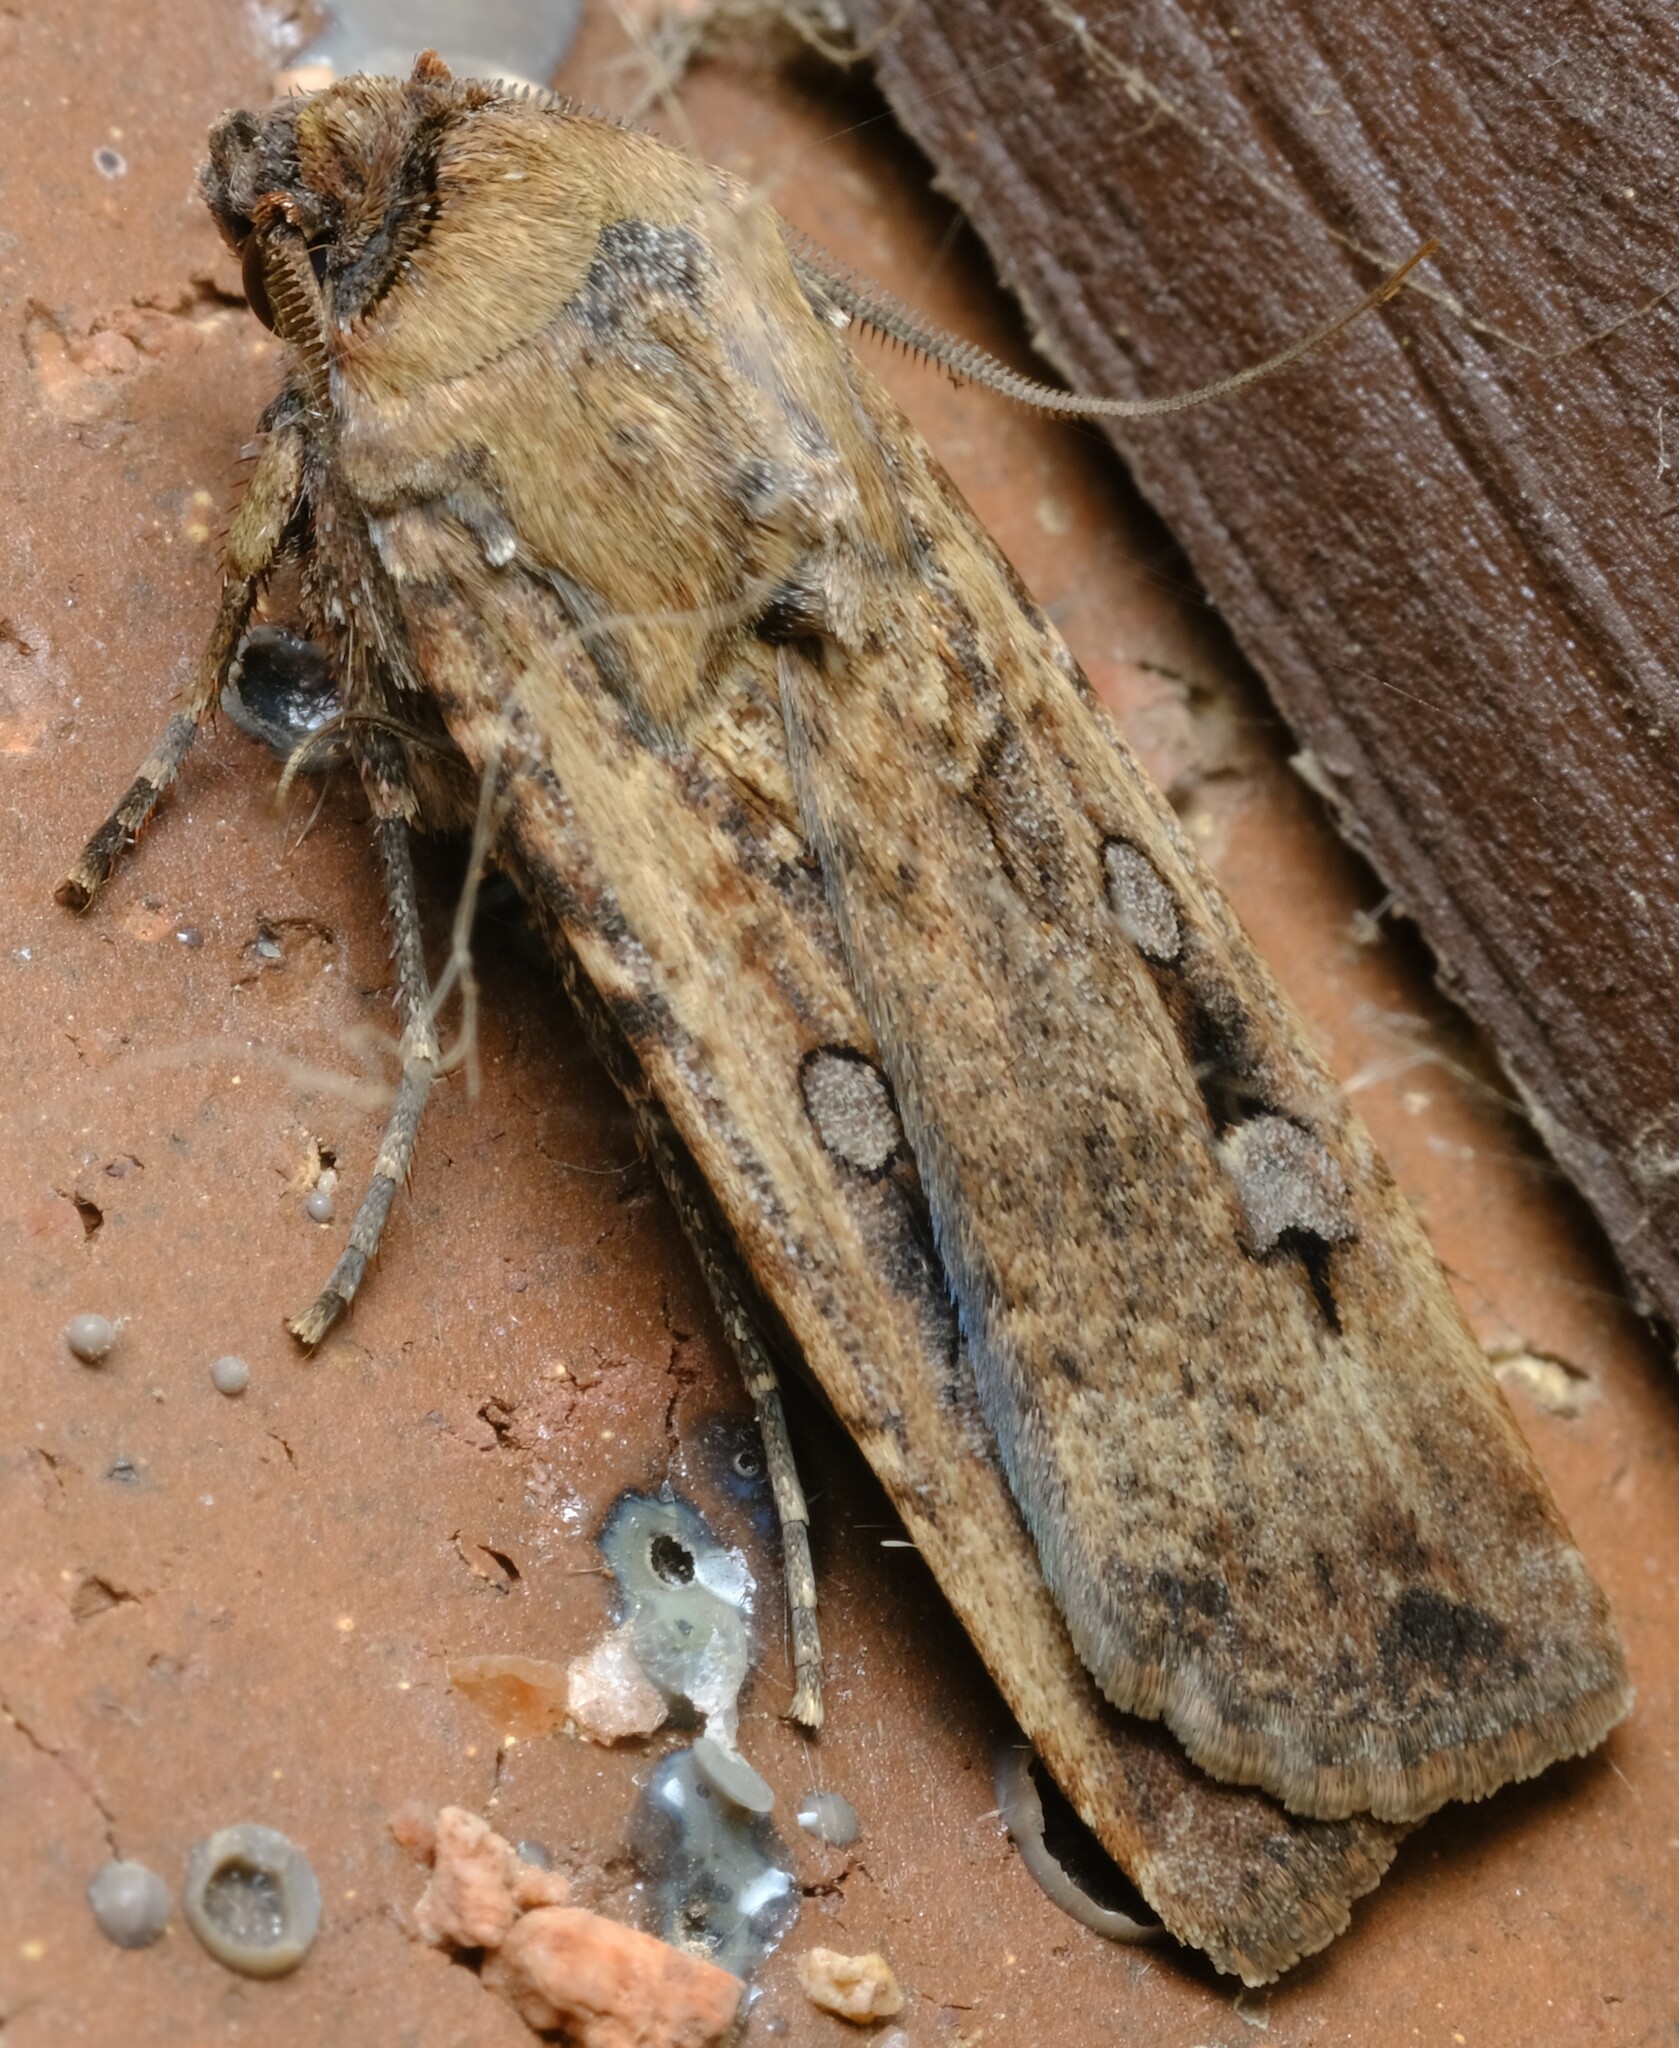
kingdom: Animalia
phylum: Arthropoda
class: Insecta
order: Lepidoptera
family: Noctuidae
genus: Agrotis
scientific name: Agrotis infusa
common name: Bogong moth
